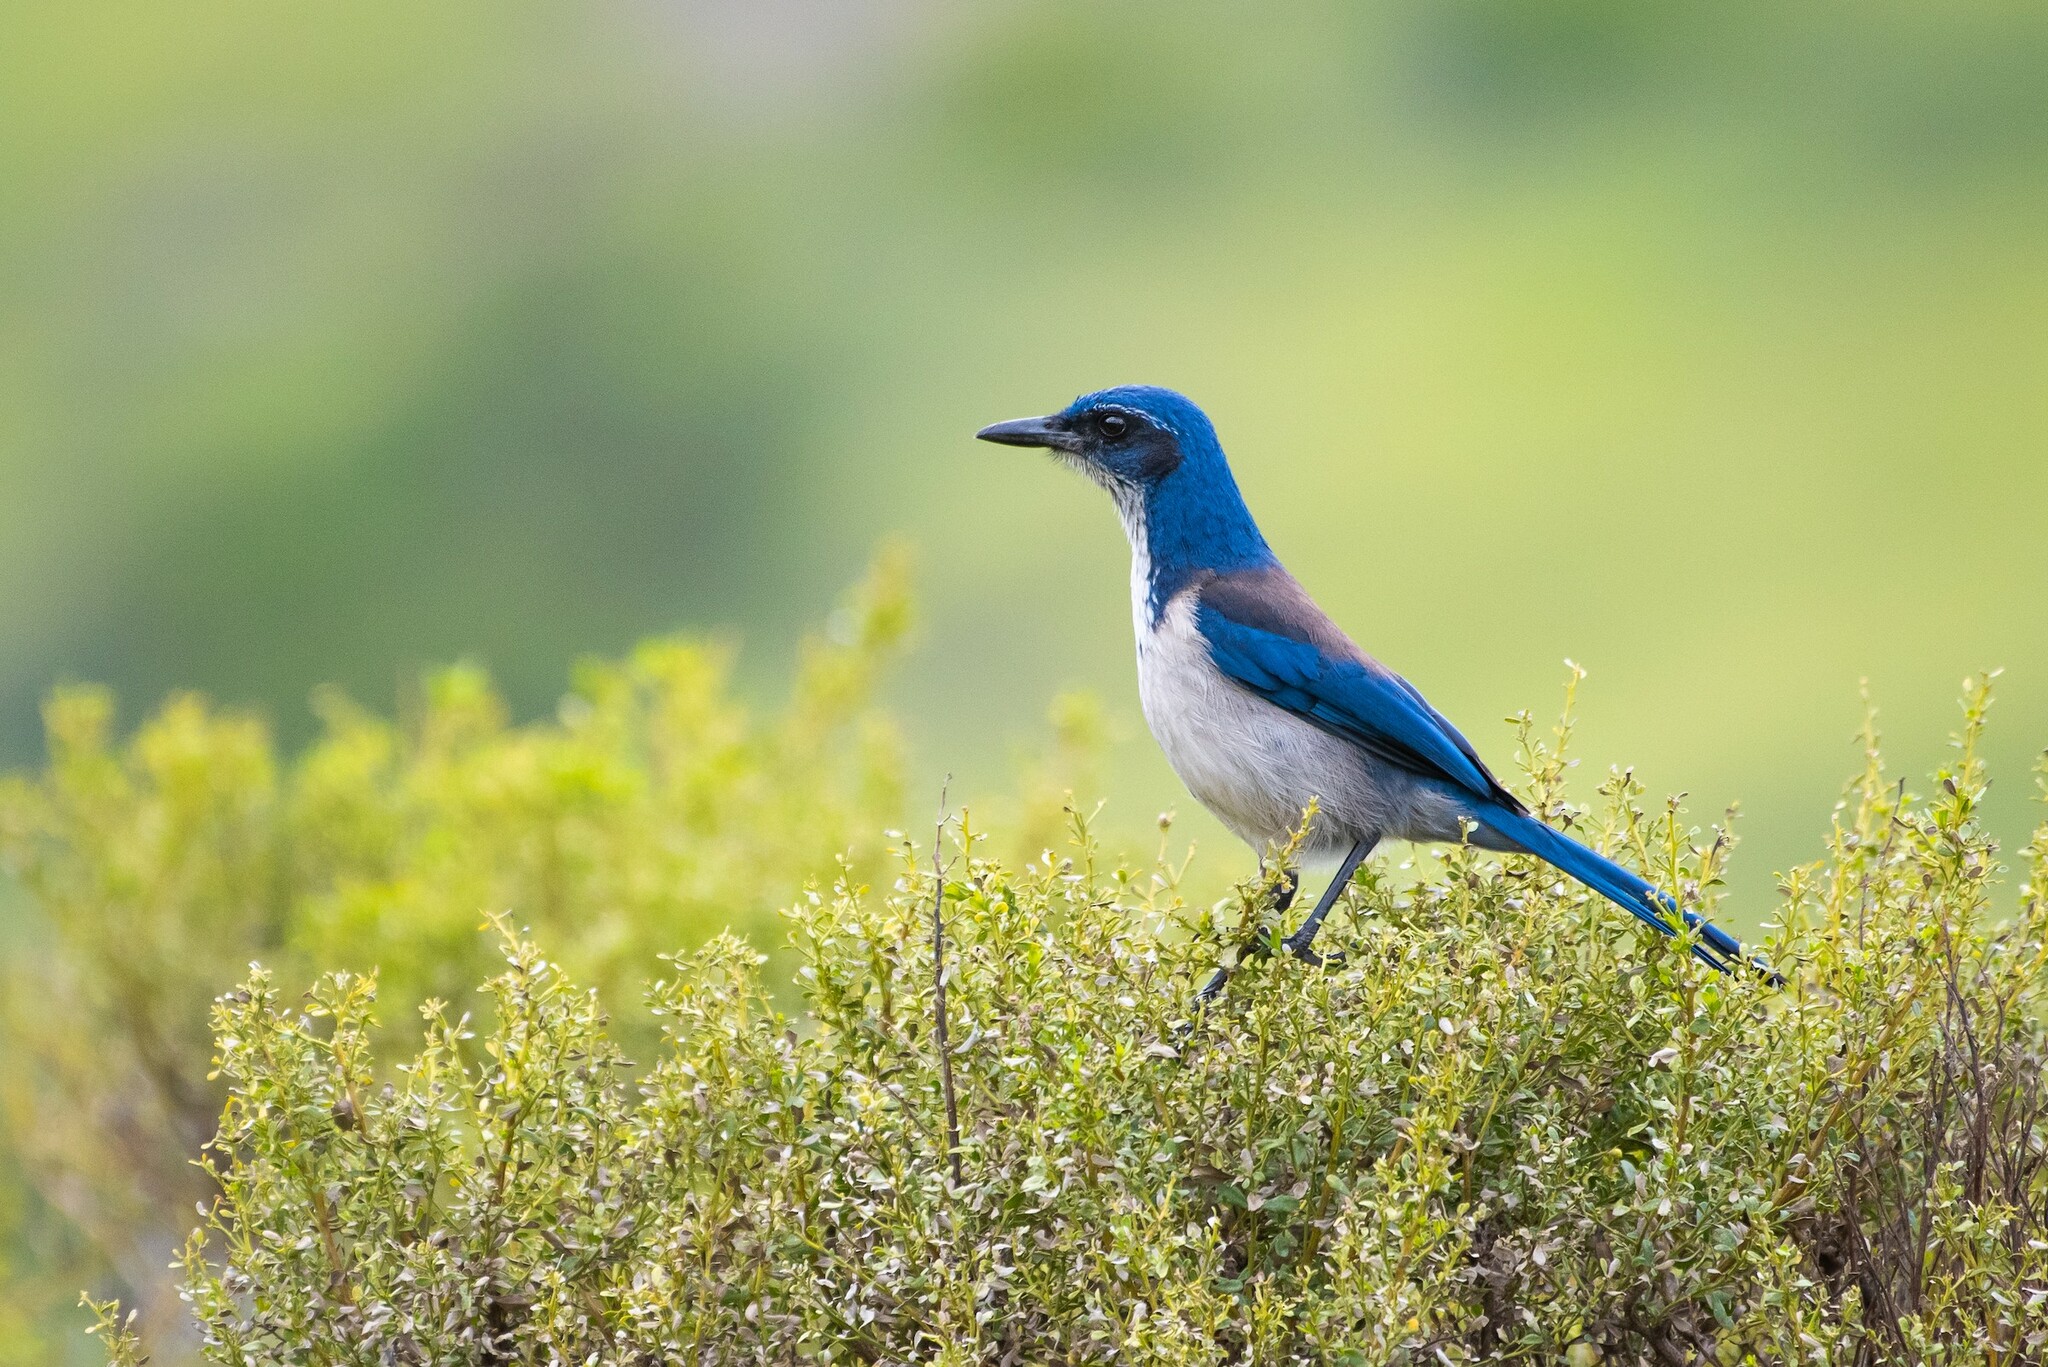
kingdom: Animalia
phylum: Chordata
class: Aves
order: Passeriformes
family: Corvidae
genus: Aphelocoma
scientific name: Aphelocoma insularis
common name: Island scrub-jay
